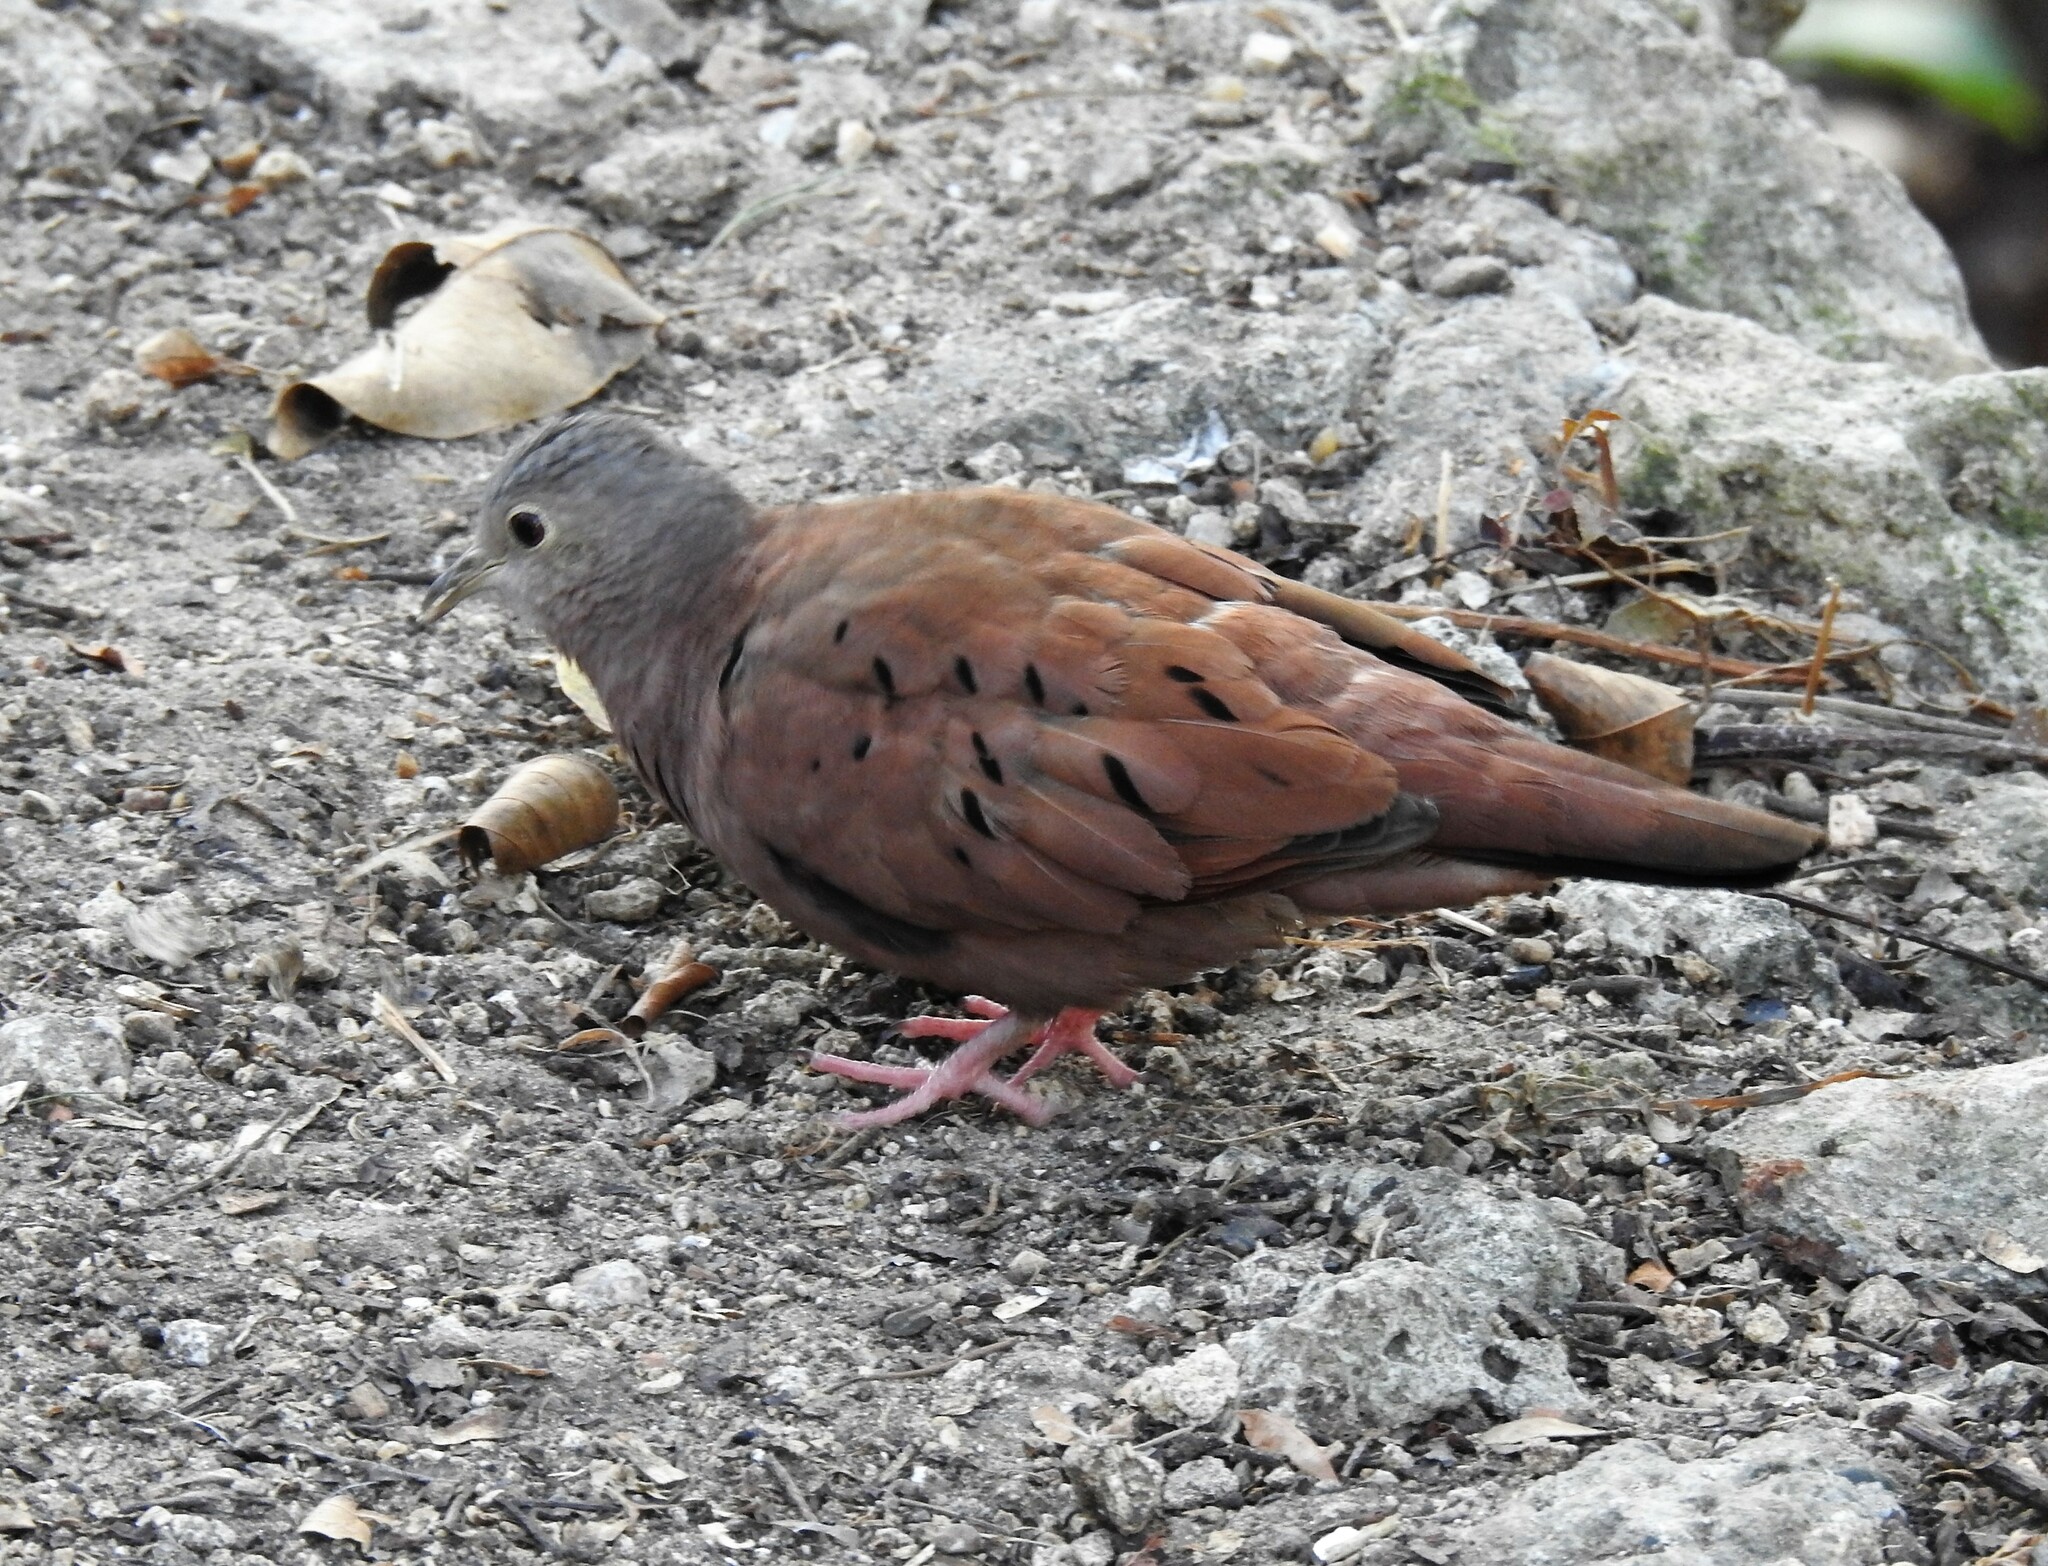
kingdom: Animalia
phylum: Chordata
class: Aves
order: Columbiformes
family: Columbidae
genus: Columbina
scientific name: Columbina talpacoti
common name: Ruddy ground dove
